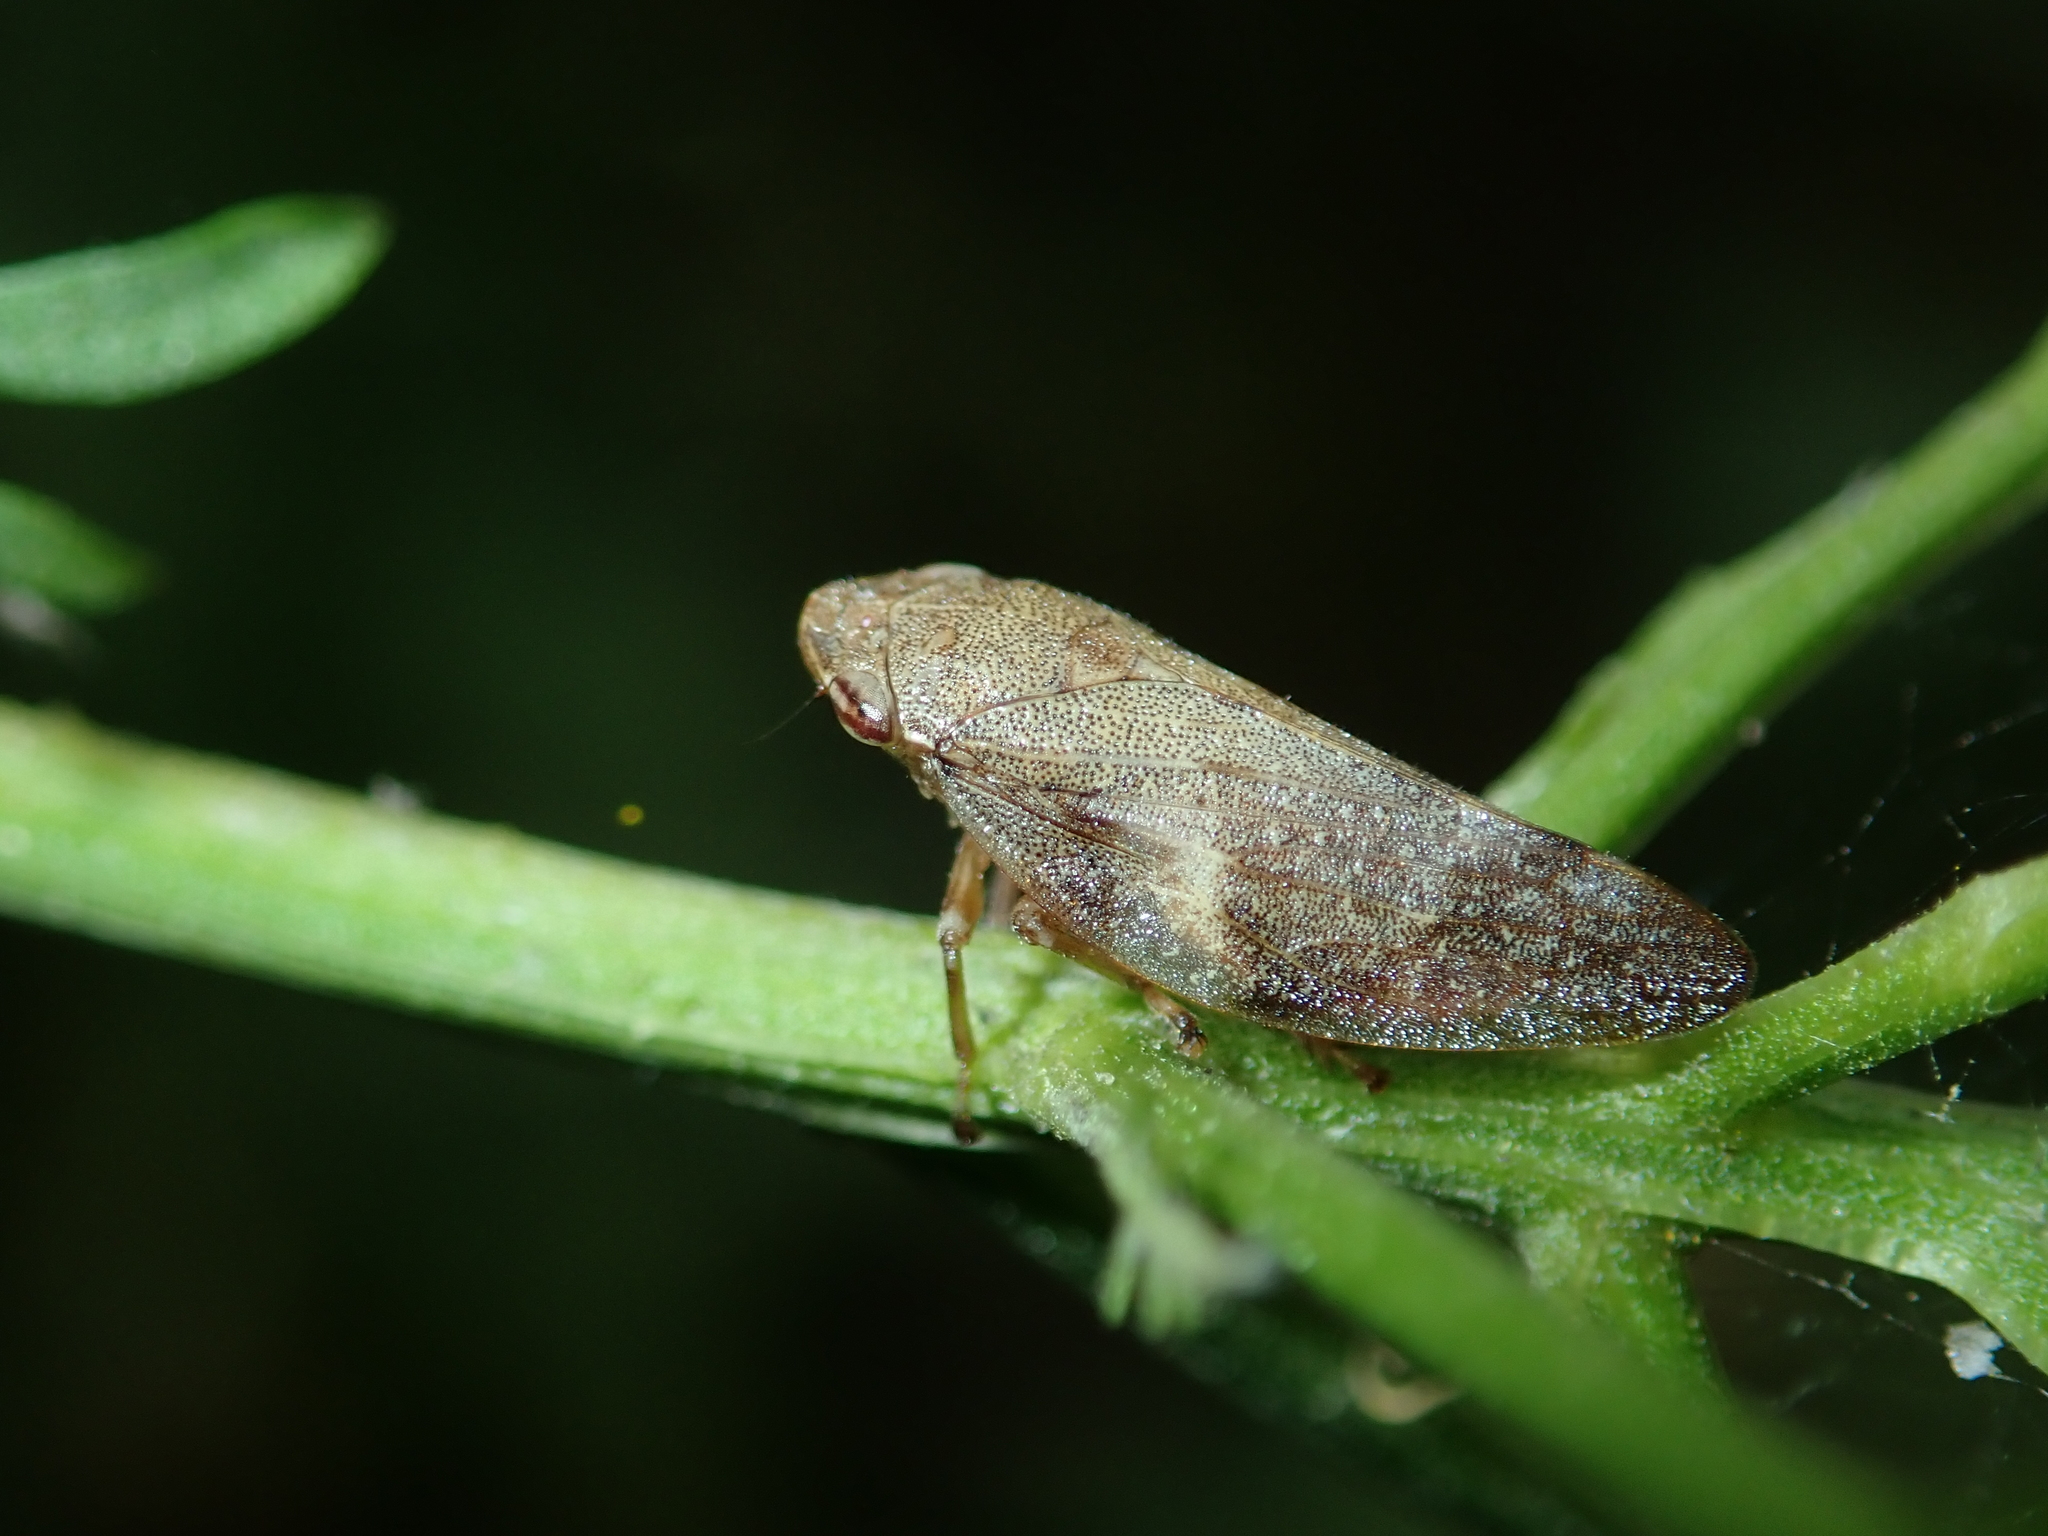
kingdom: Animalia
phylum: Arthropoda
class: Insecta
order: Hemiptera
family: Aphrophoridae
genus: Aphrophora
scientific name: Aphrophora alni
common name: European alder spittlebug
